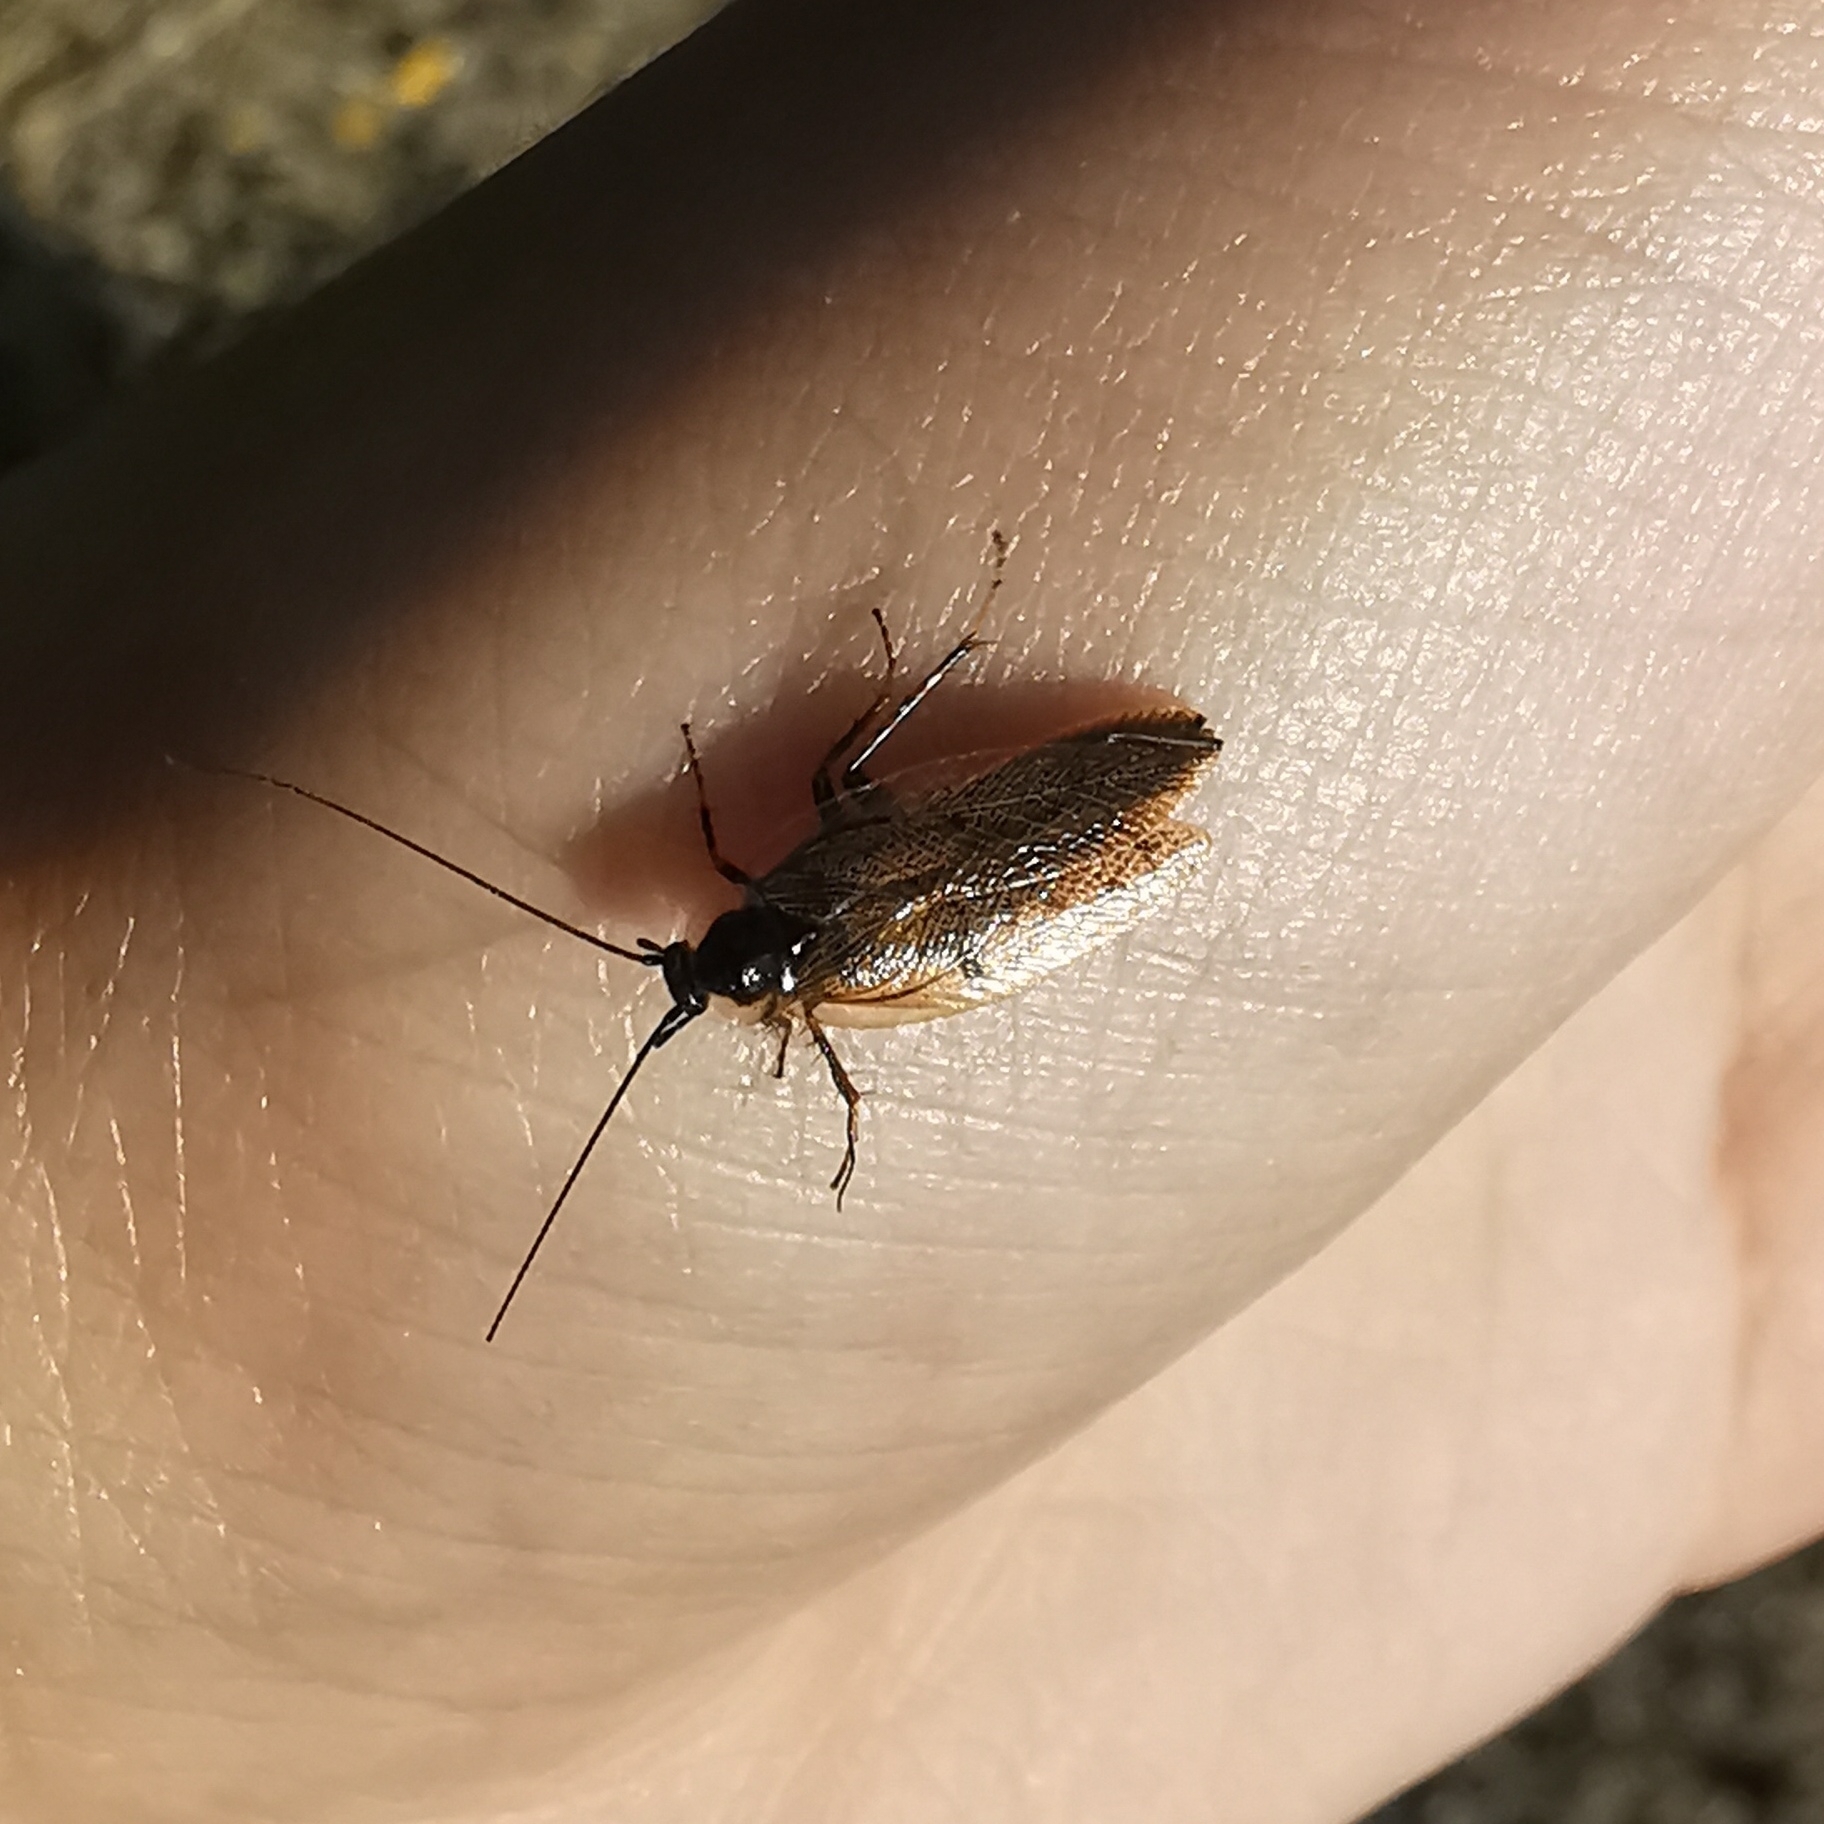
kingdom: Animalia
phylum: Arthropoda
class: Insecta
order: Blattodea
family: Ectobiidae
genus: Ectobius
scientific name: Ectobius lapponicus
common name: Dusky cockroach
